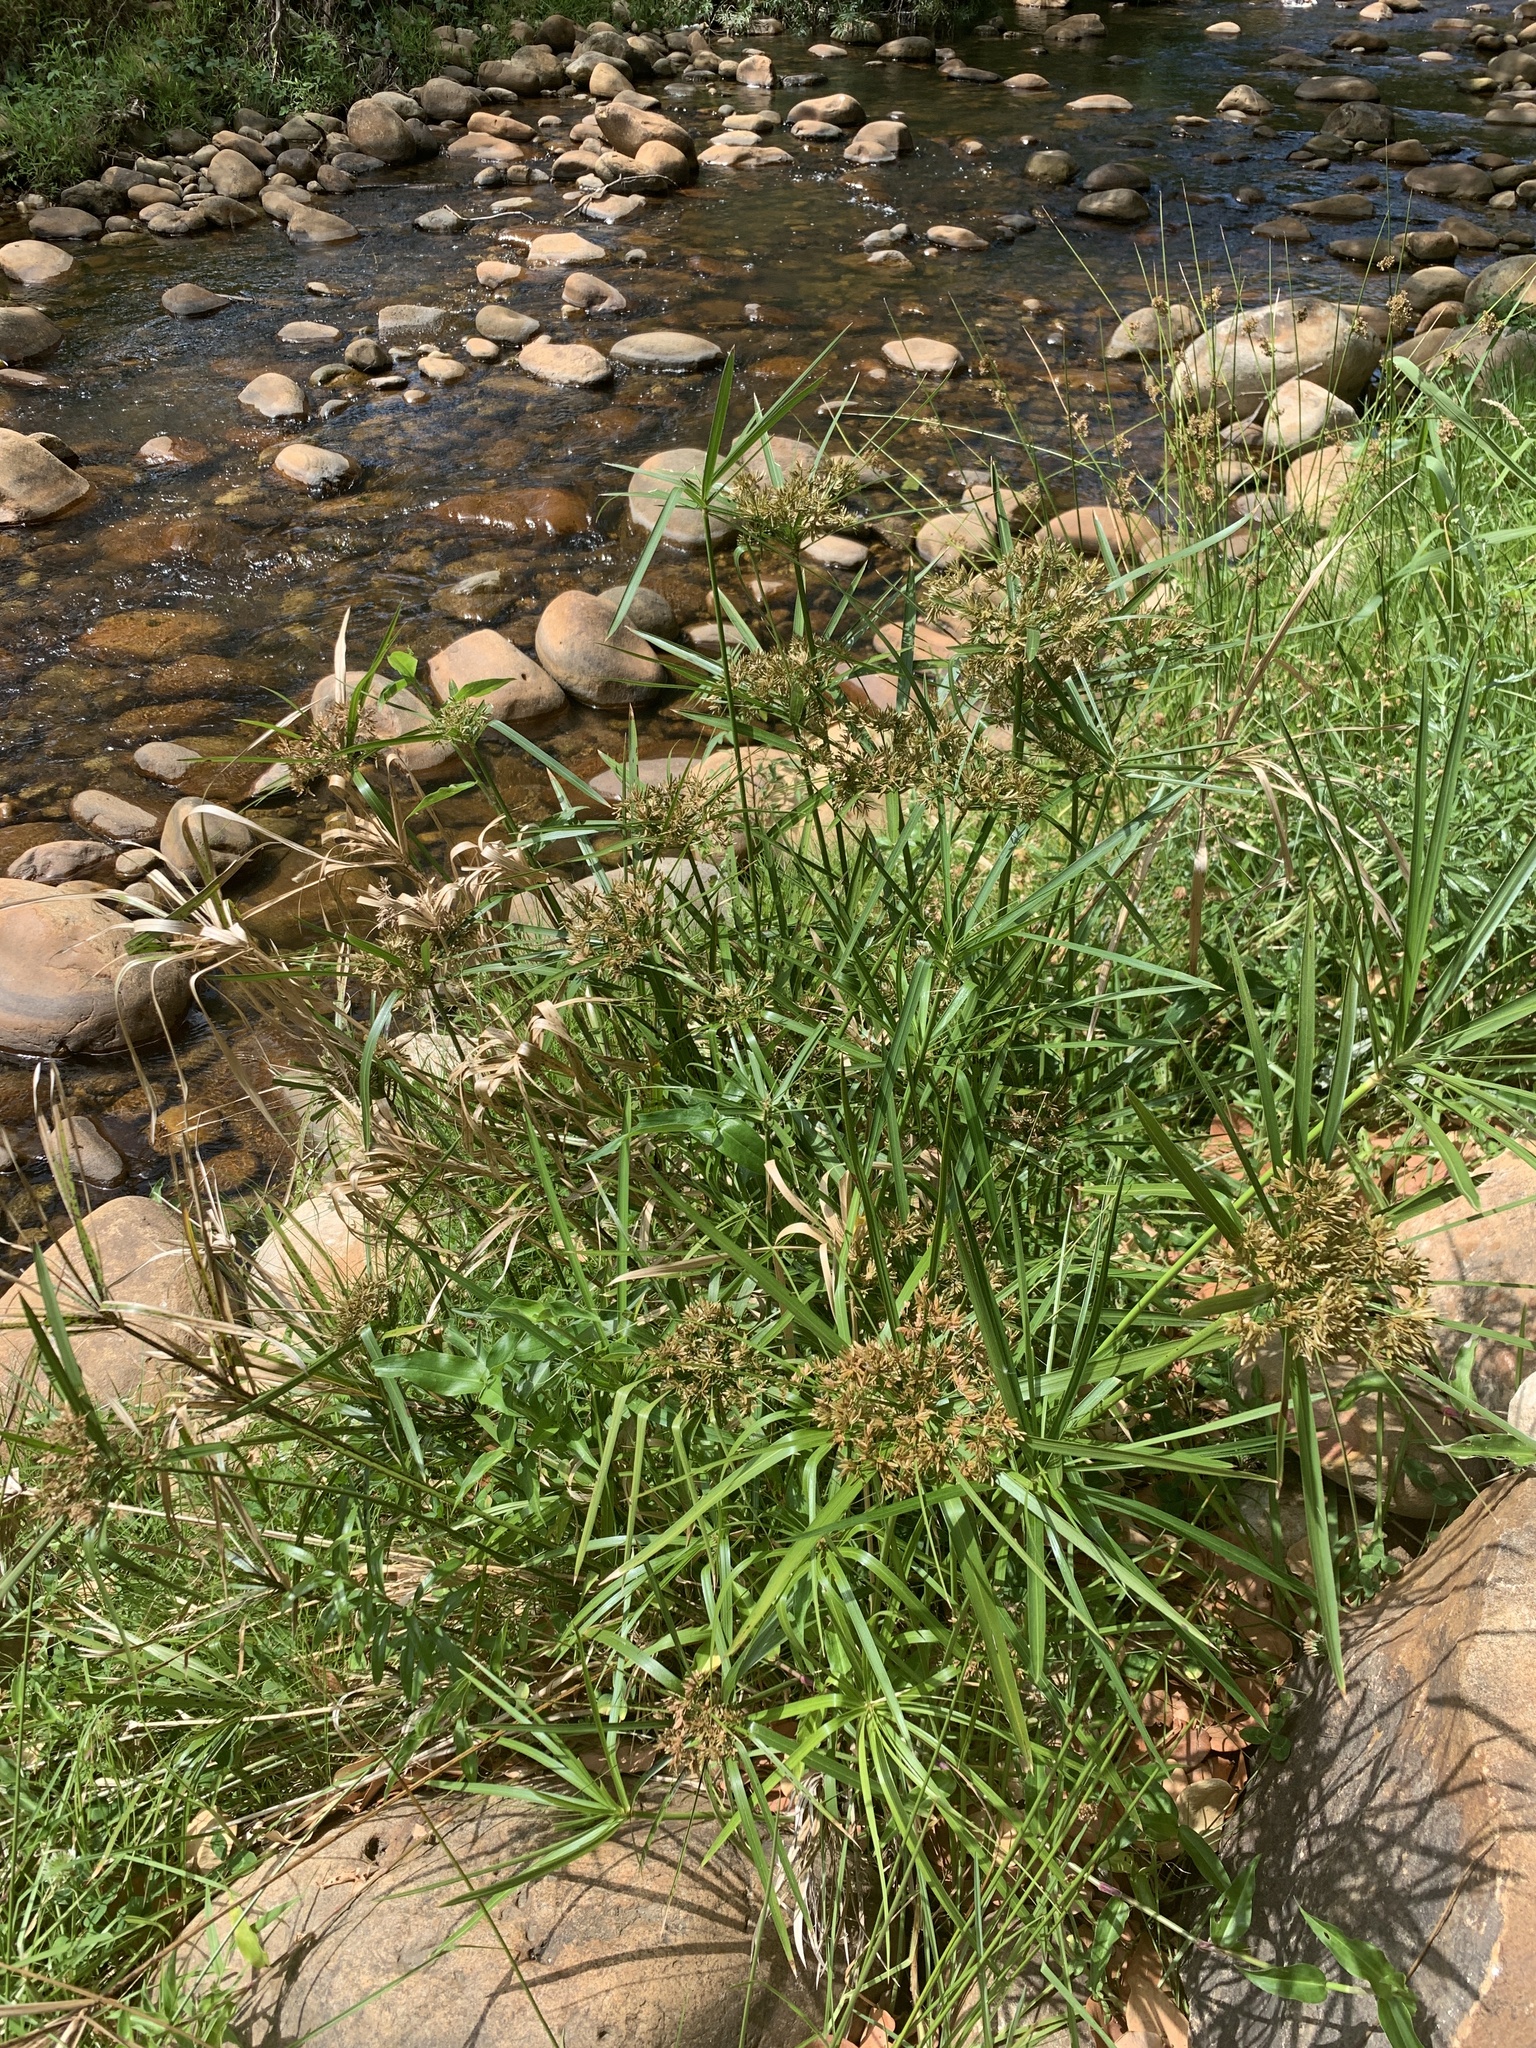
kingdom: Plantae
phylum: Tracheophyta
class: Liliopsida
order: Poales
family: Cyperaceae
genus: Cyperus
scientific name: Cyperus textilis
